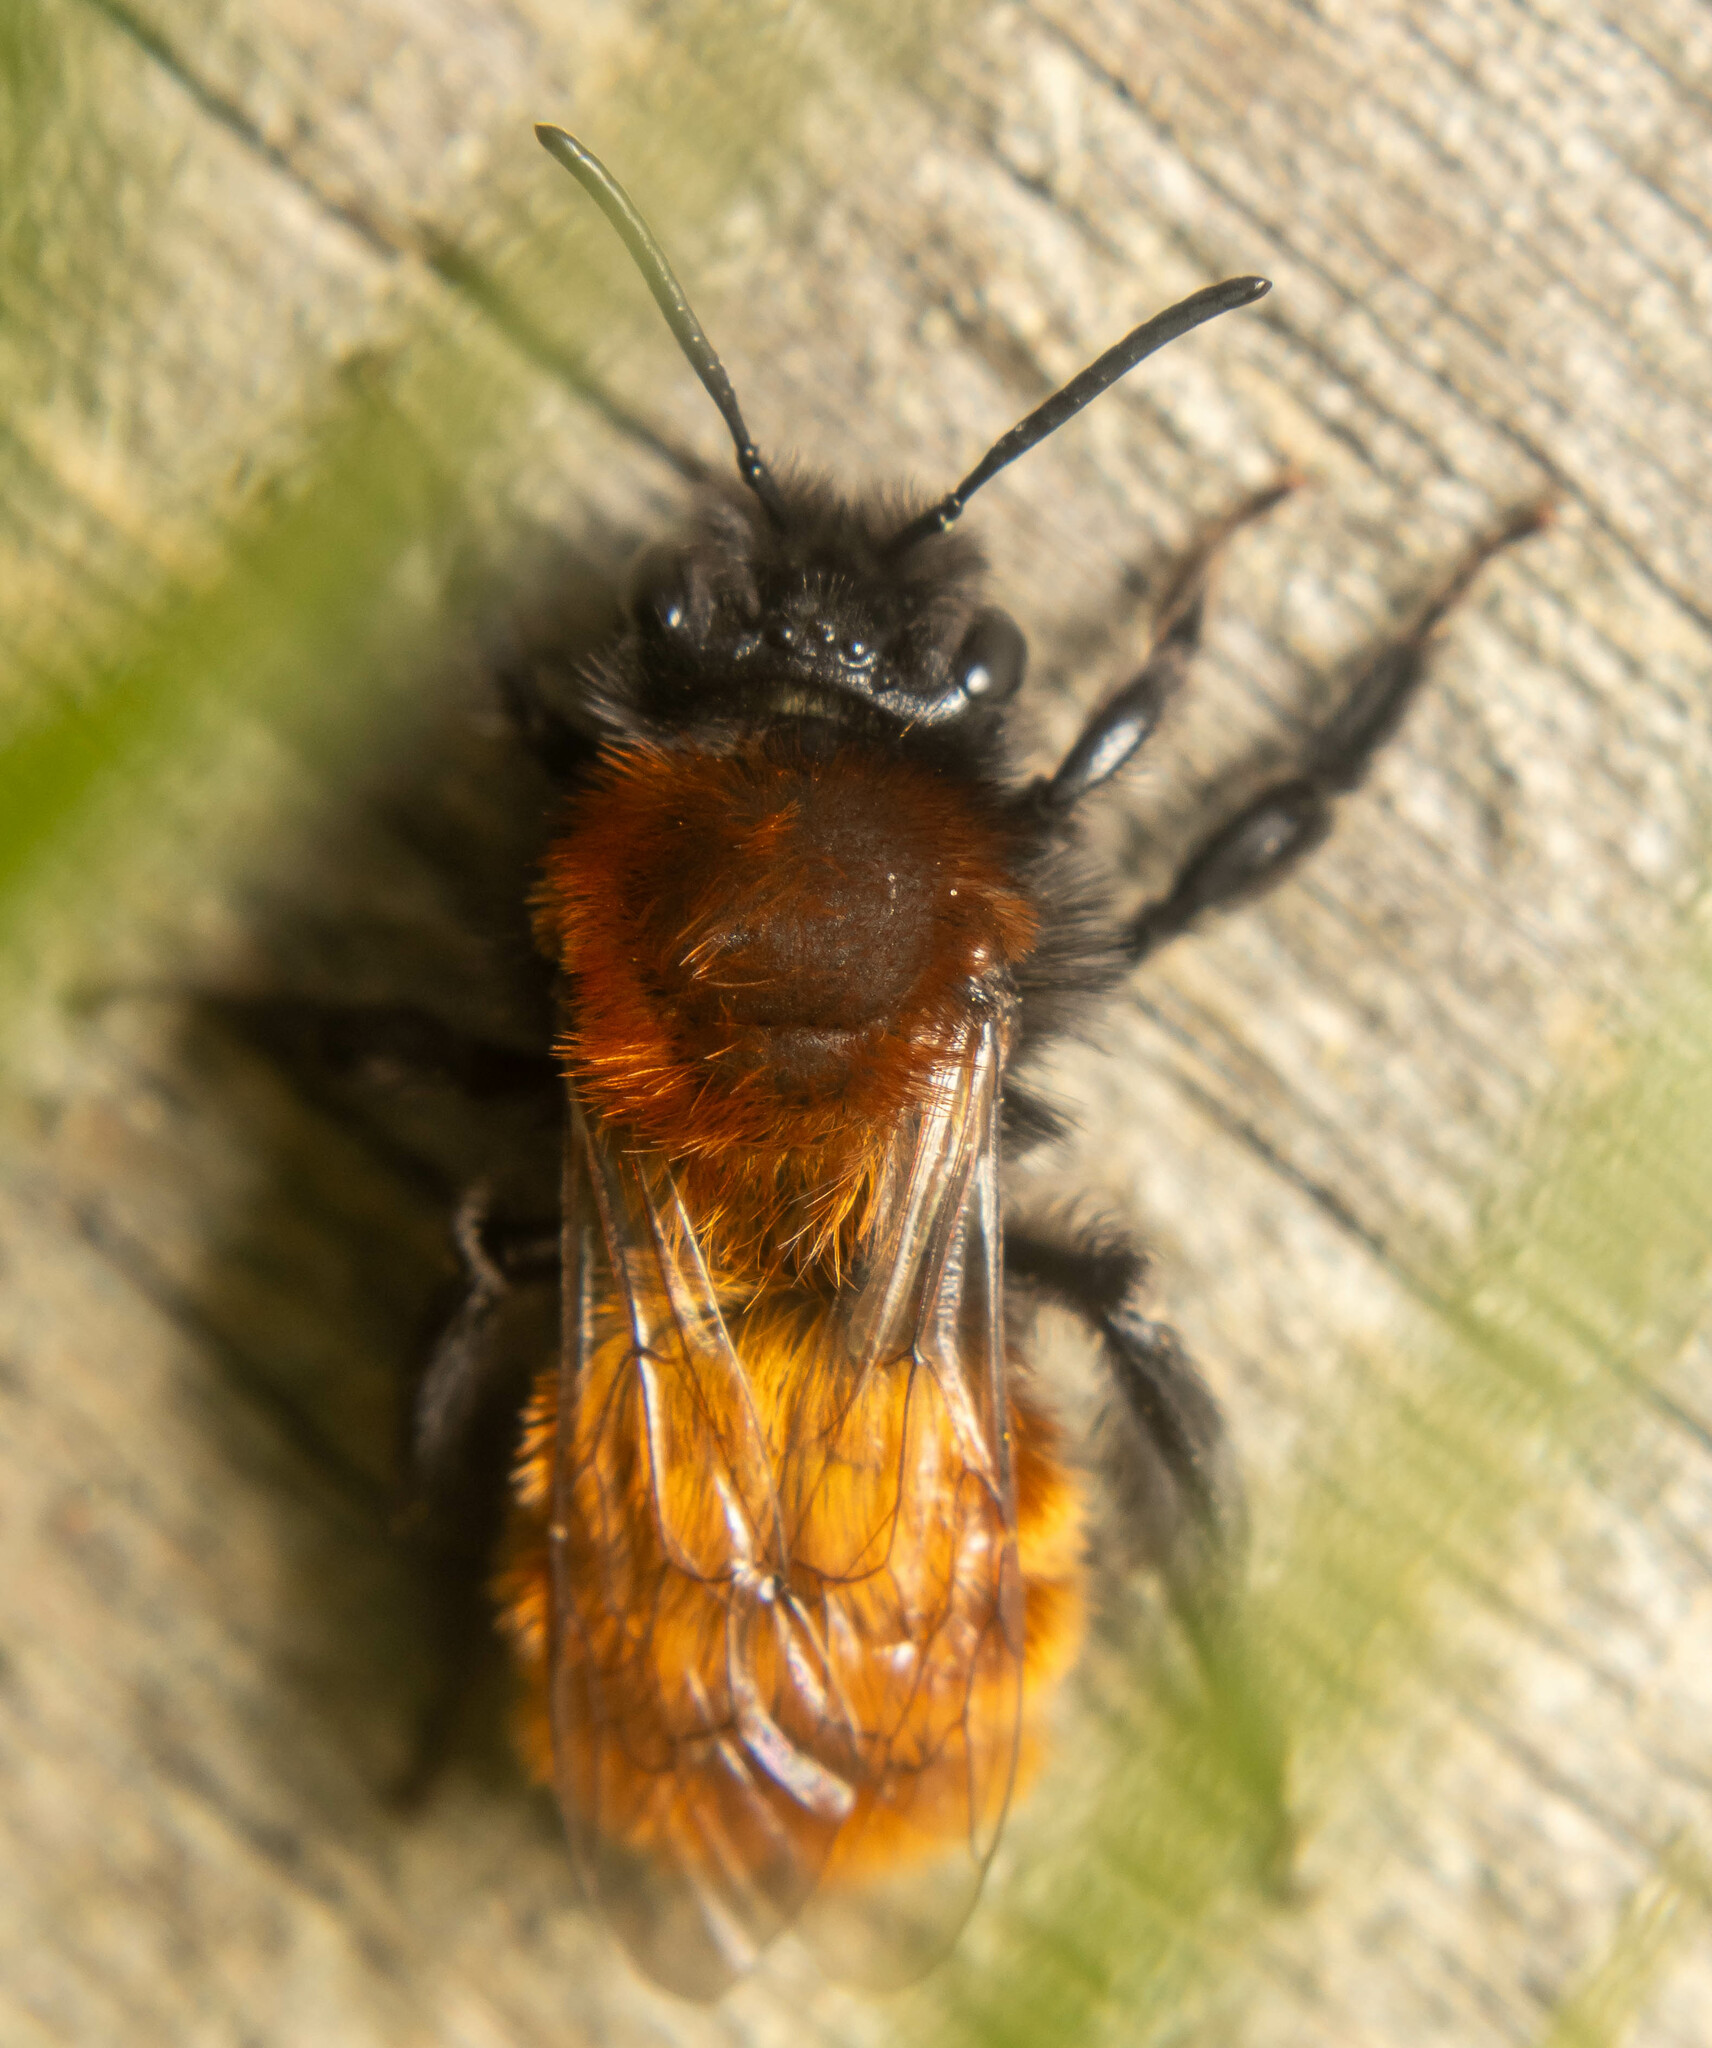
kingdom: Animalia
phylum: Arthropoda
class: Insecta
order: Hymenoptera
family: Andrenidae
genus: Andrena
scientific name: Andrena fulva
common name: Tawny mining bee
